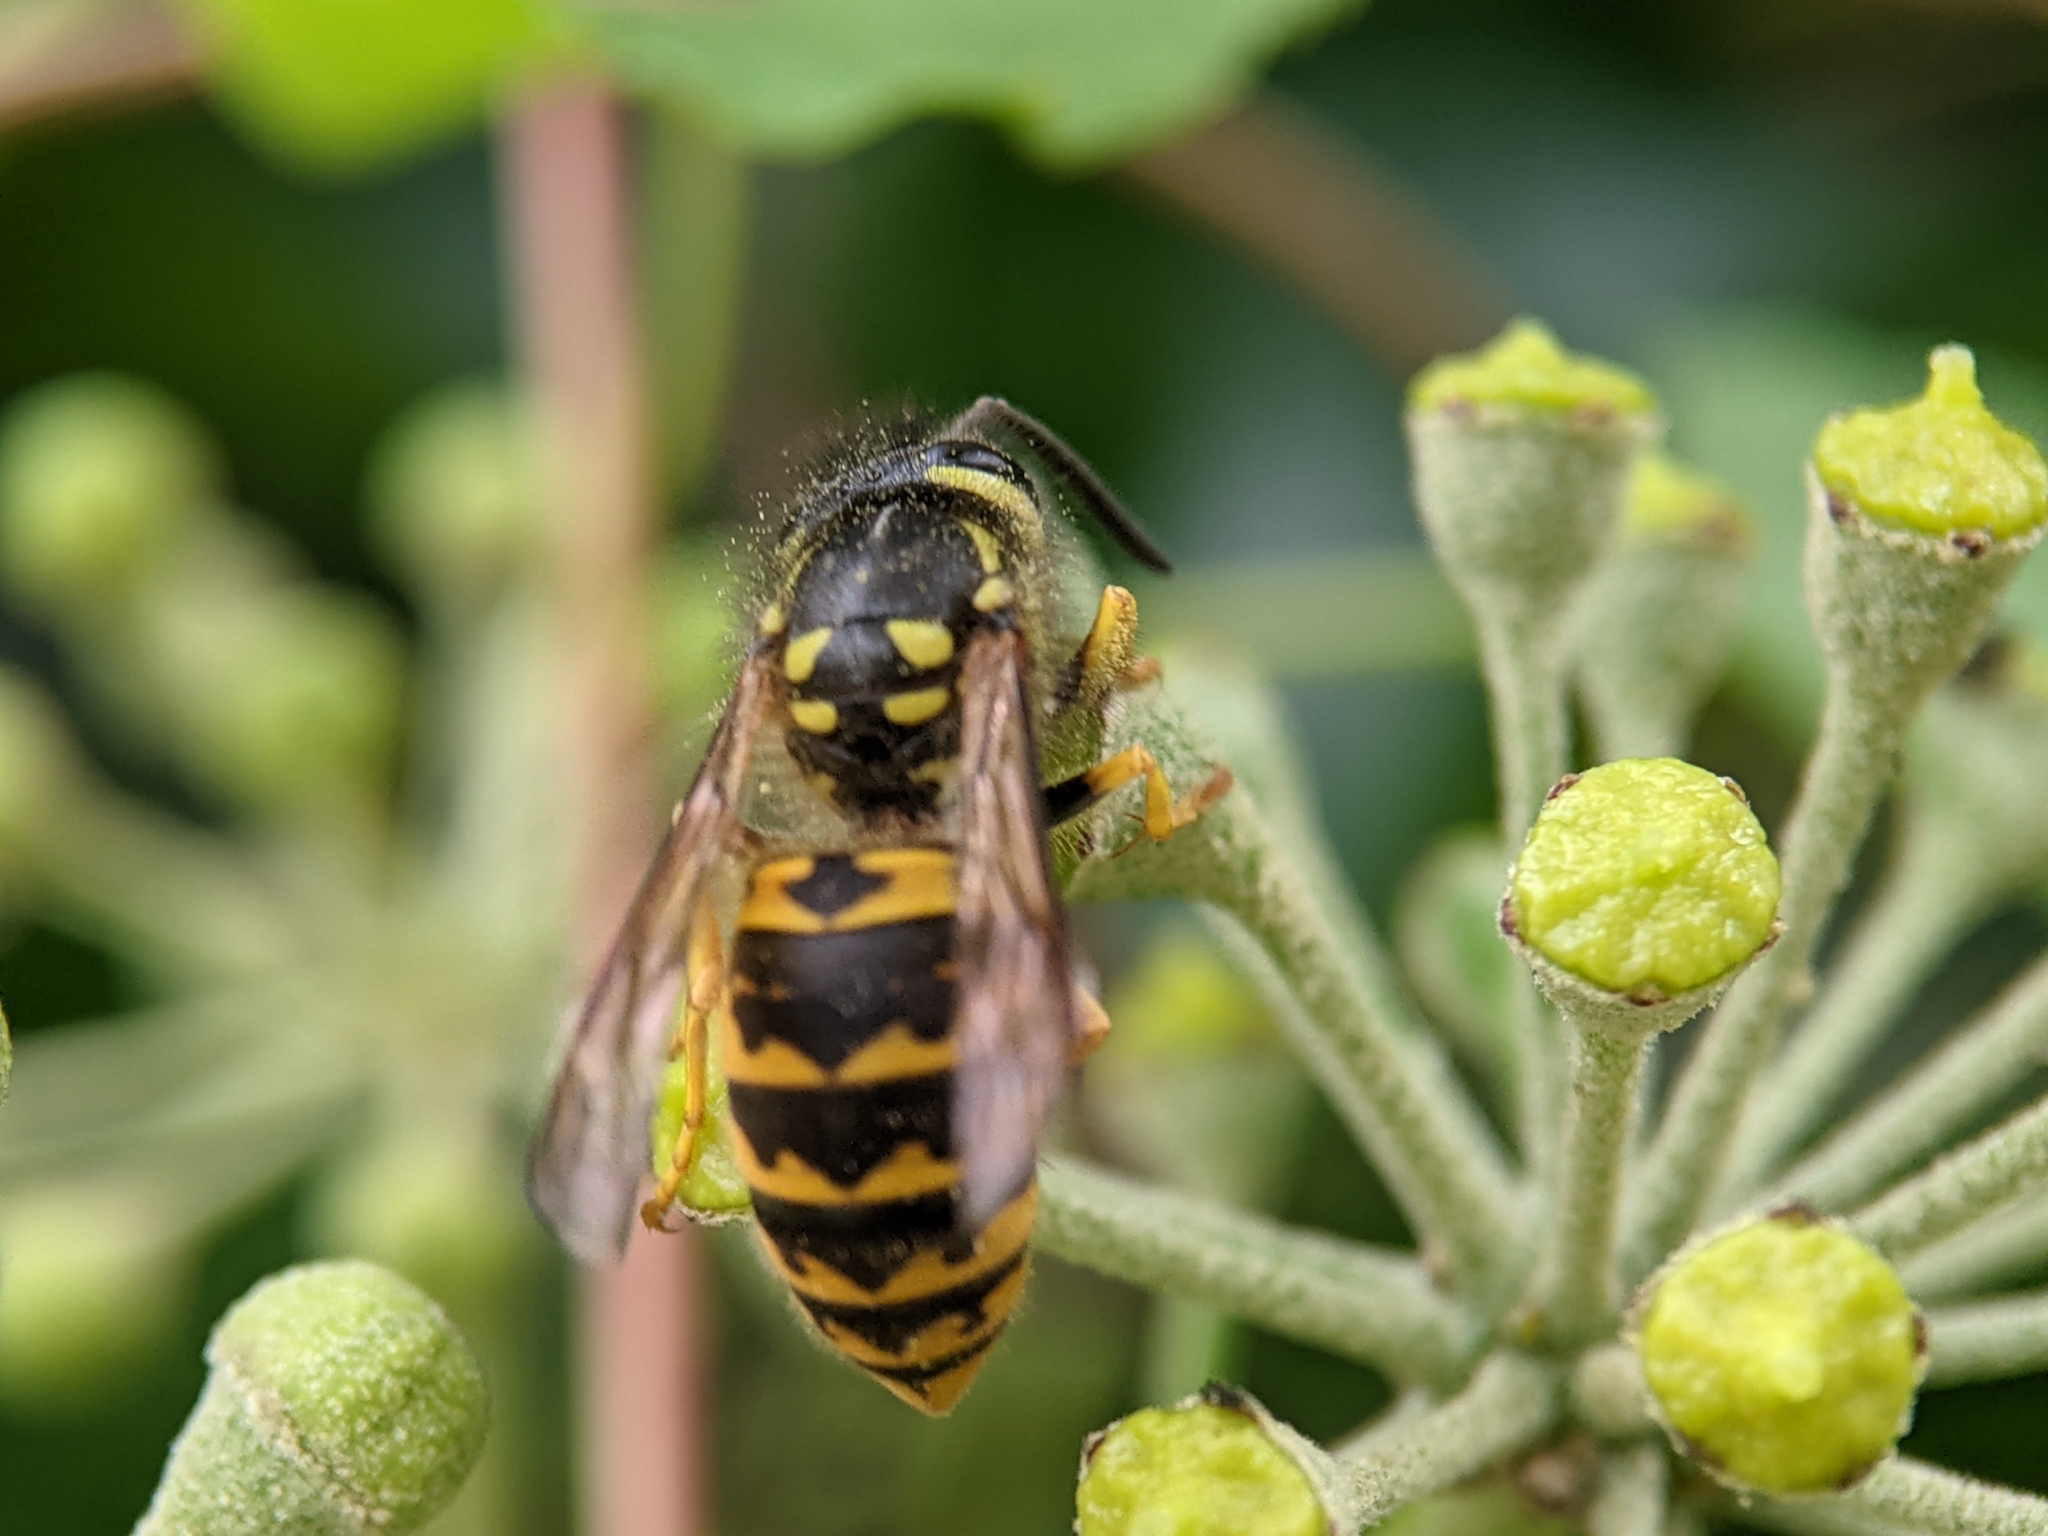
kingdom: Animalia
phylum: Arthropoda
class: Insecta
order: Hymenoptera
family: Vespidae
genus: Vespula
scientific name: Vespula germanica
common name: German wasp
